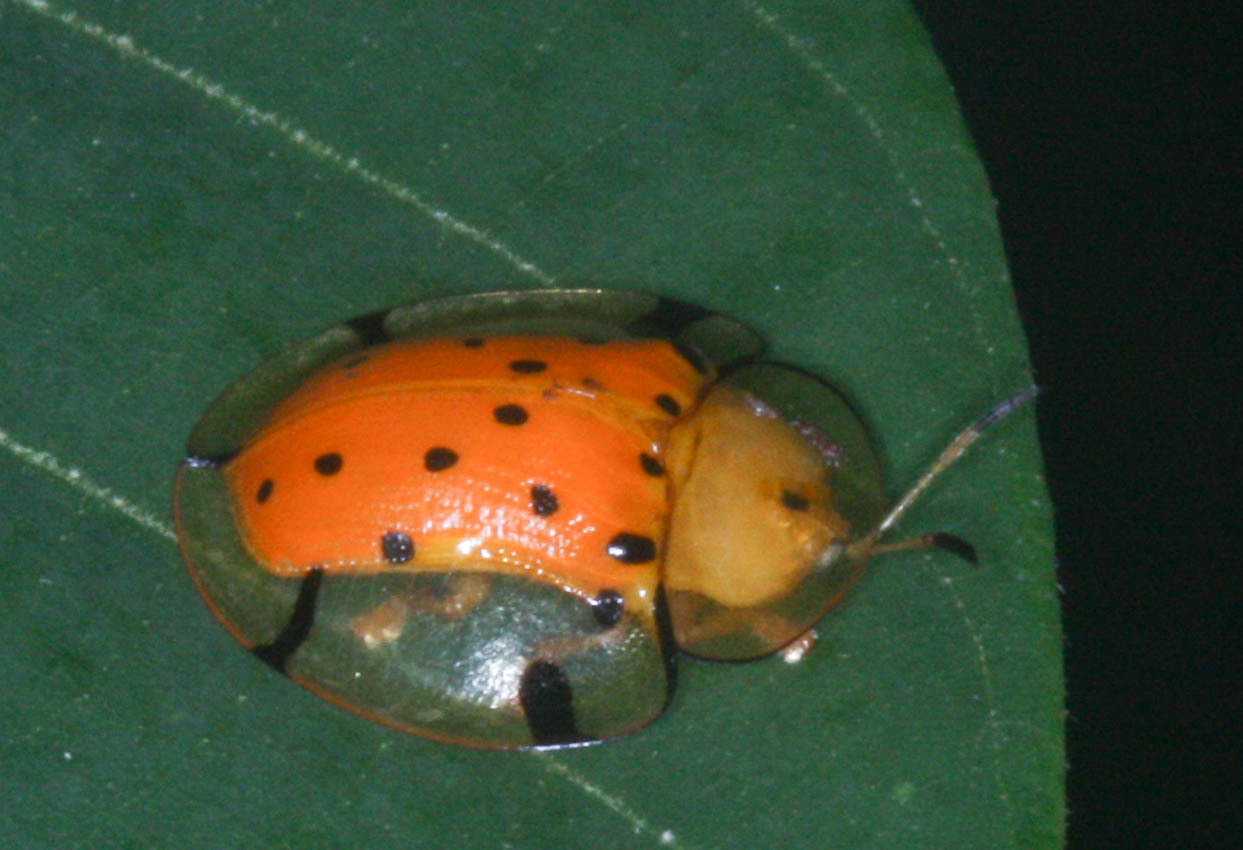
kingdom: Animalia
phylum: Arthropoda
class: Insecta
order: Coleoptera
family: Chrysomelidae
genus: Aspidimorpha
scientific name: Aspidimorpha miliaris
